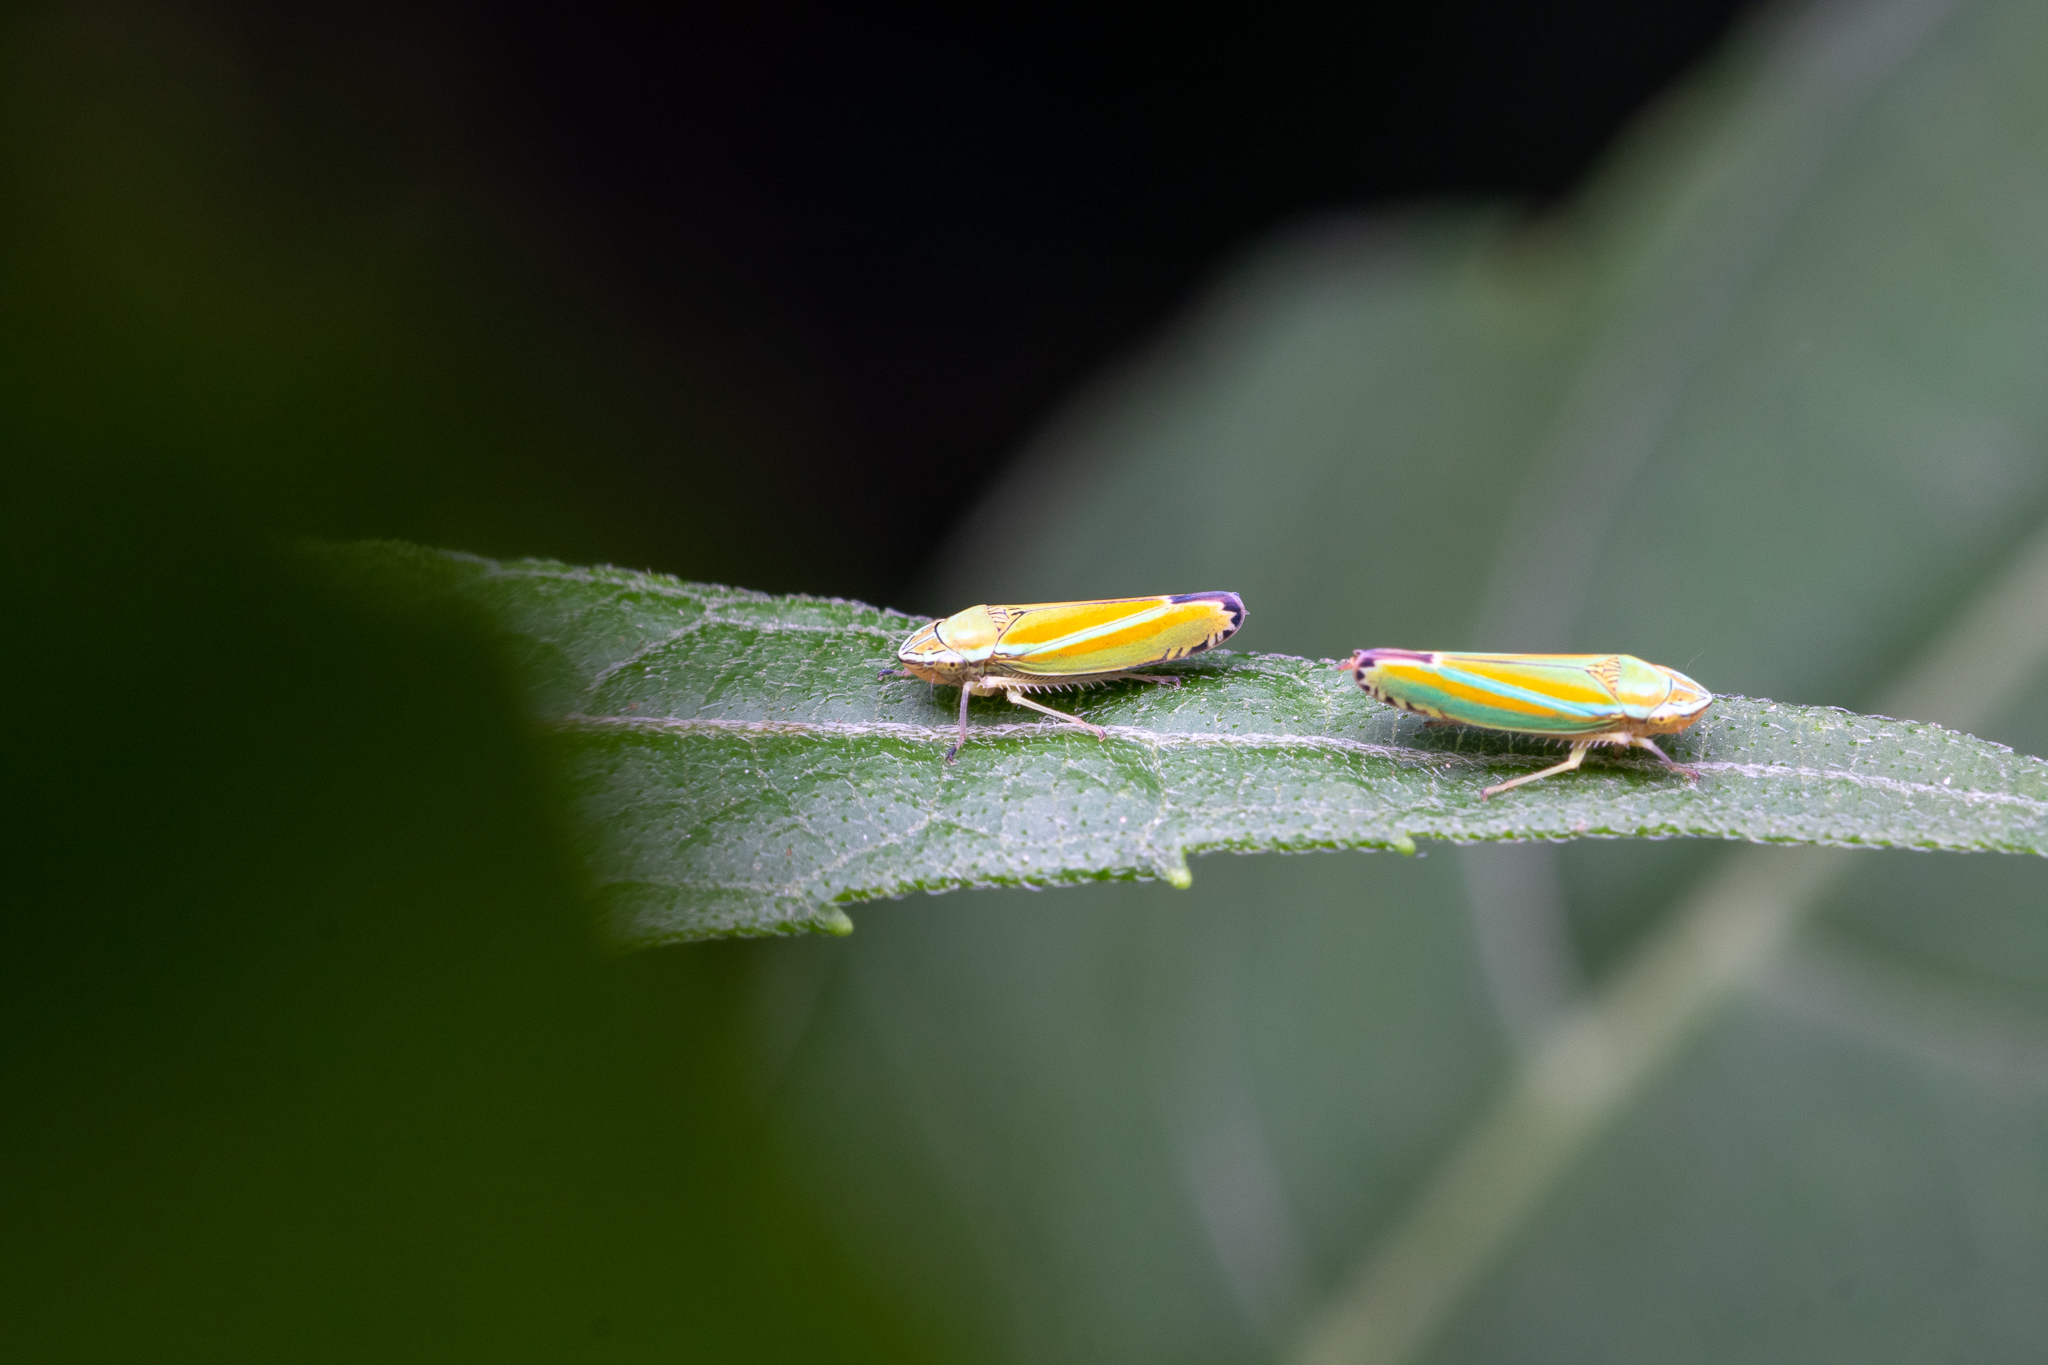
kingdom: Animalia
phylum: Arthropoda
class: Insecta
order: Hemiptera
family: Cicadellidae
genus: Graphocephala
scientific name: Graphocephala versuta
